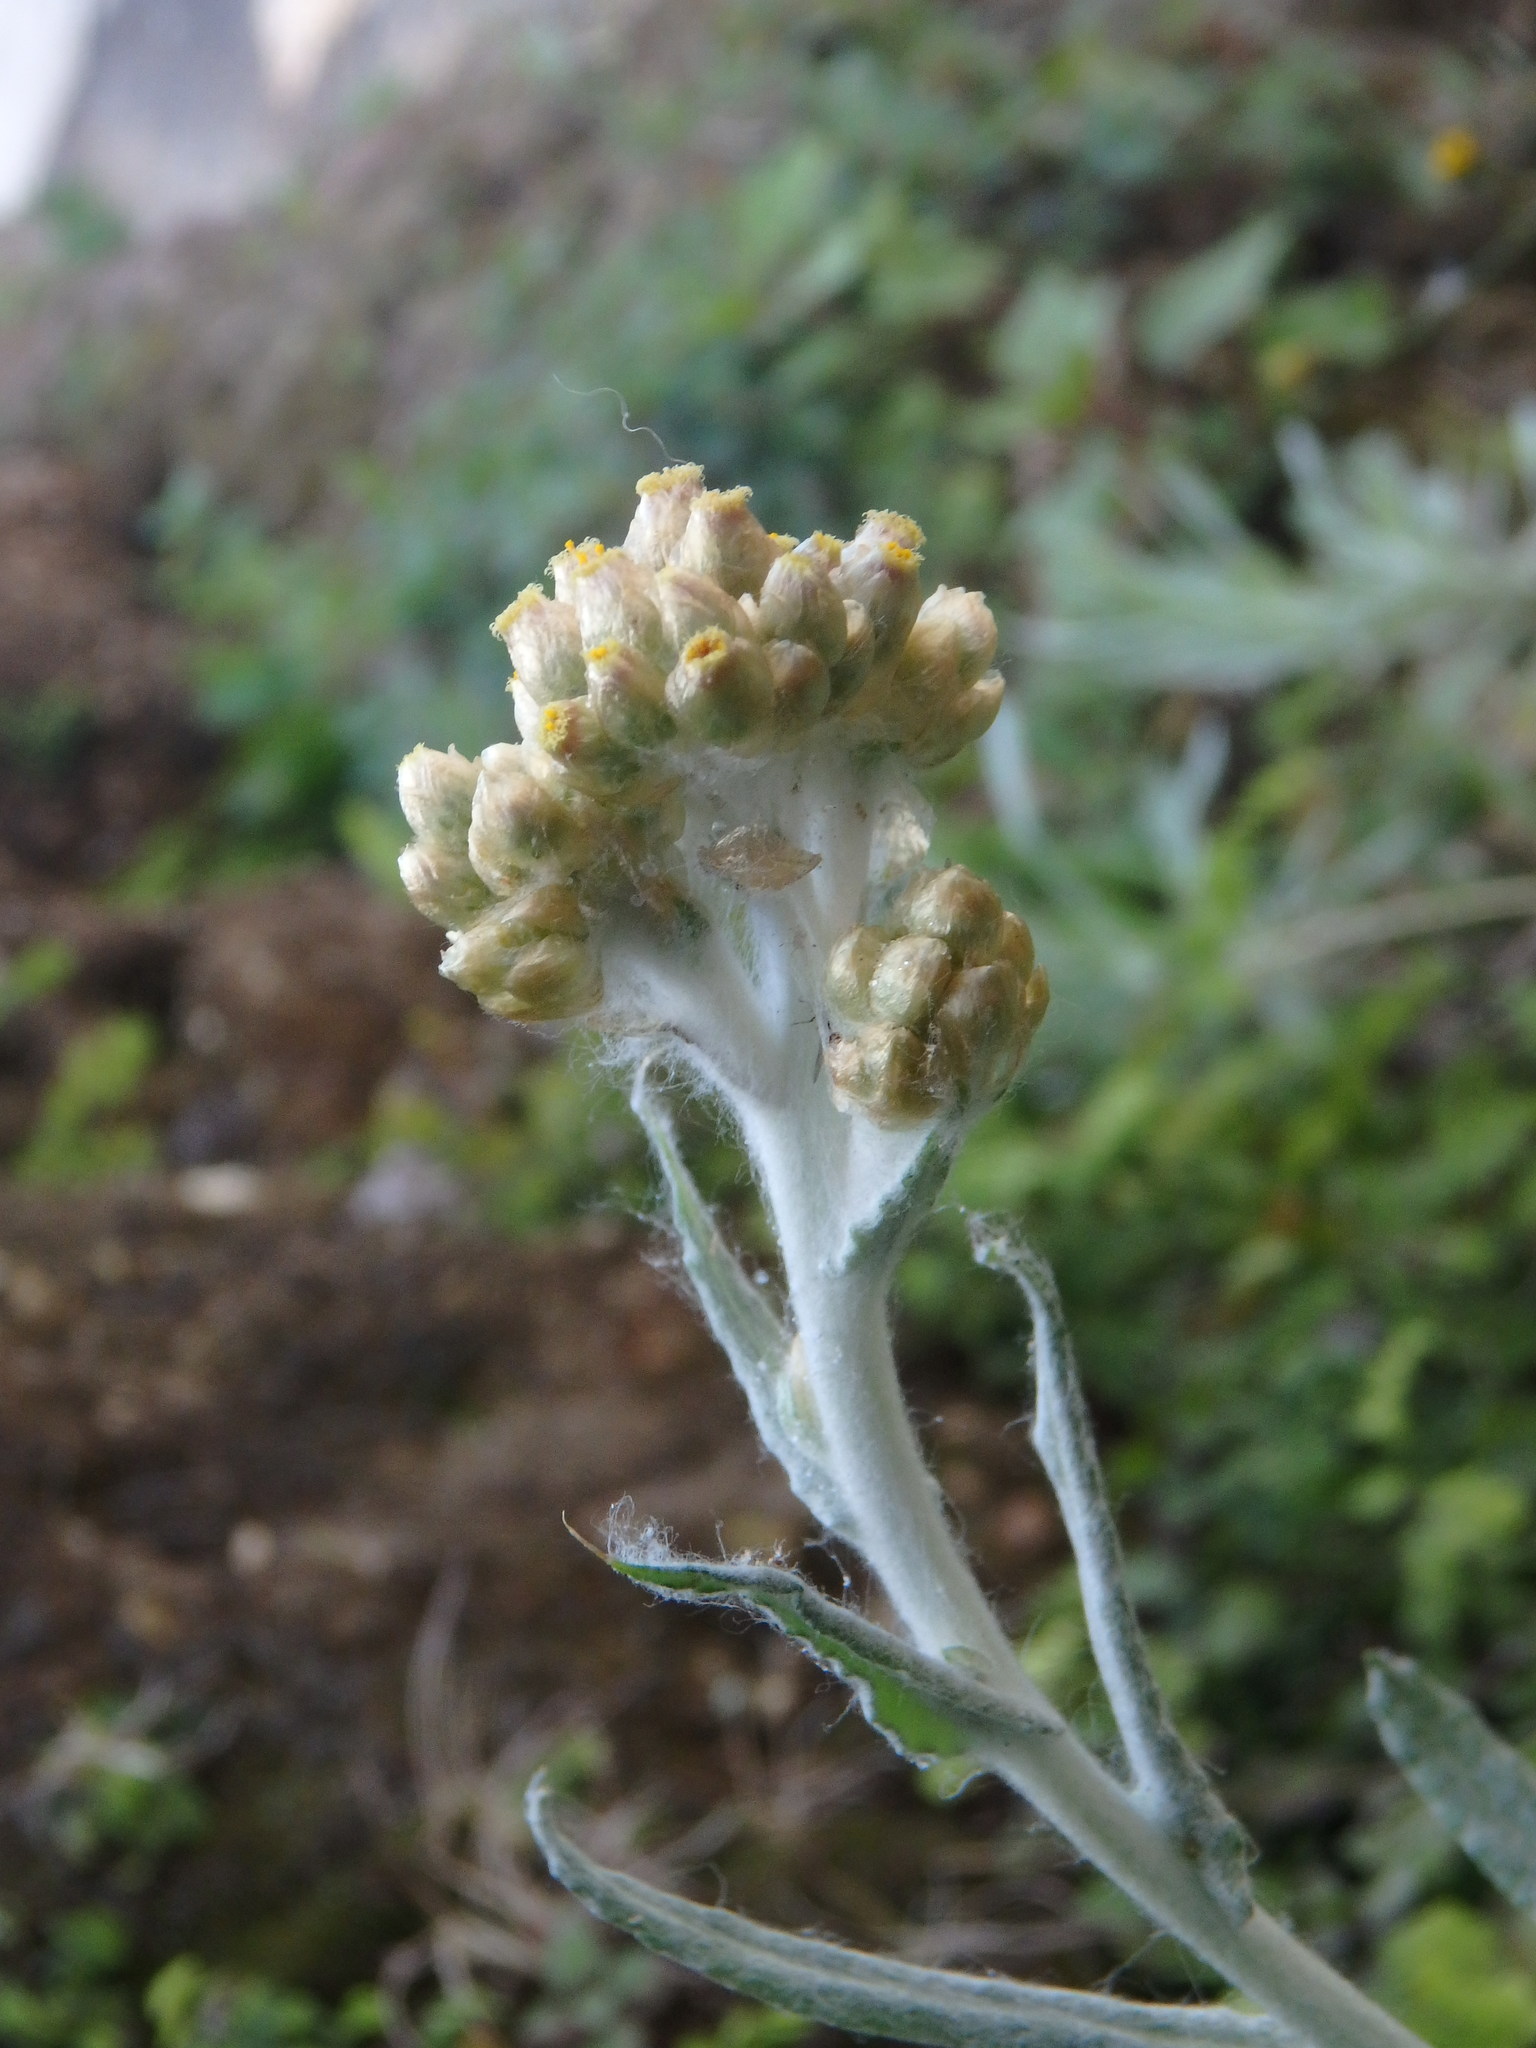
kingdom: Plantae
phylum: Tracheophyta
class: Magnoliopsida
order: Asterales
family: Asteraceae
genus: Helichrysum
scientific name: Helichrysum luteoalbum
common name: Daisy
